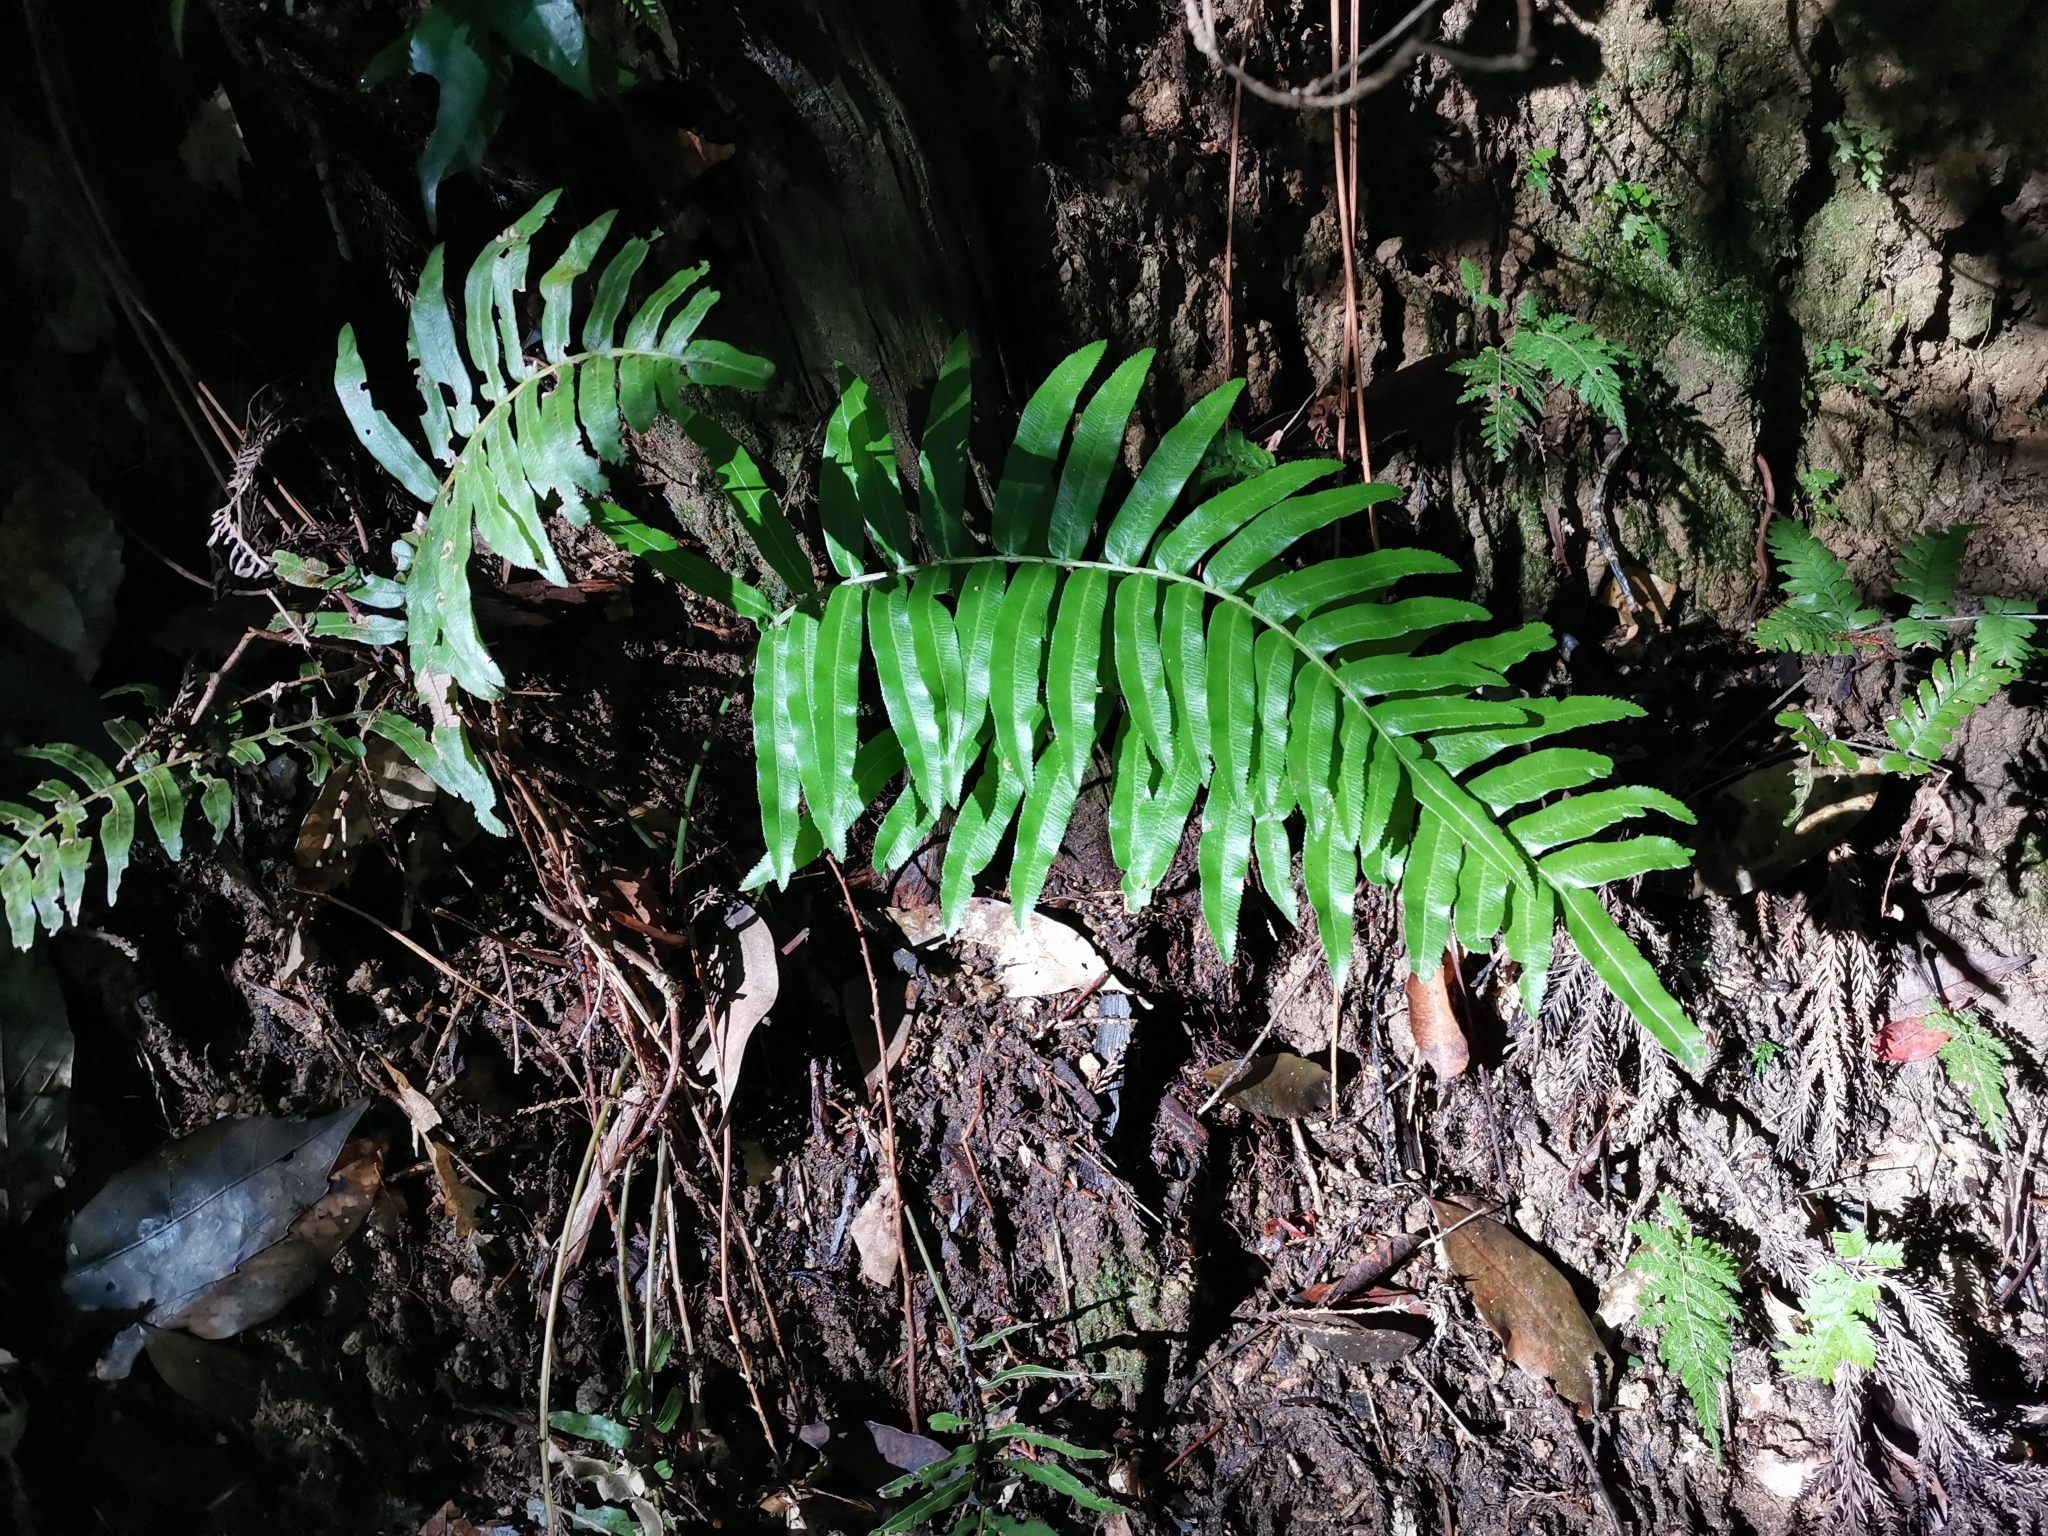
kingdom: Plantae
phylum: Tracheophyta
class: Polypodiopsida
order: Cyatheales
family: Plagiogyriaceae
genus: Plagiogyria
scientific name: Plagiogyria japonica
